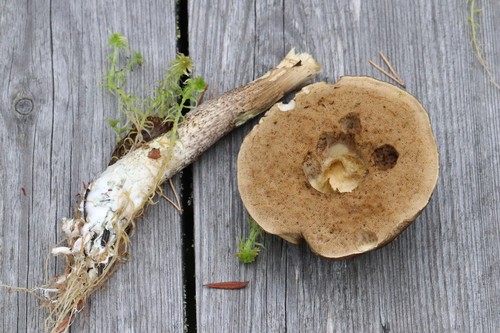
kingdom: Fungi
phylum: Basidiomycota
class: Agaricomycetes
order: Boletales
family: Boletaceae
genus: Leccinum
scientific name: Leccinum
